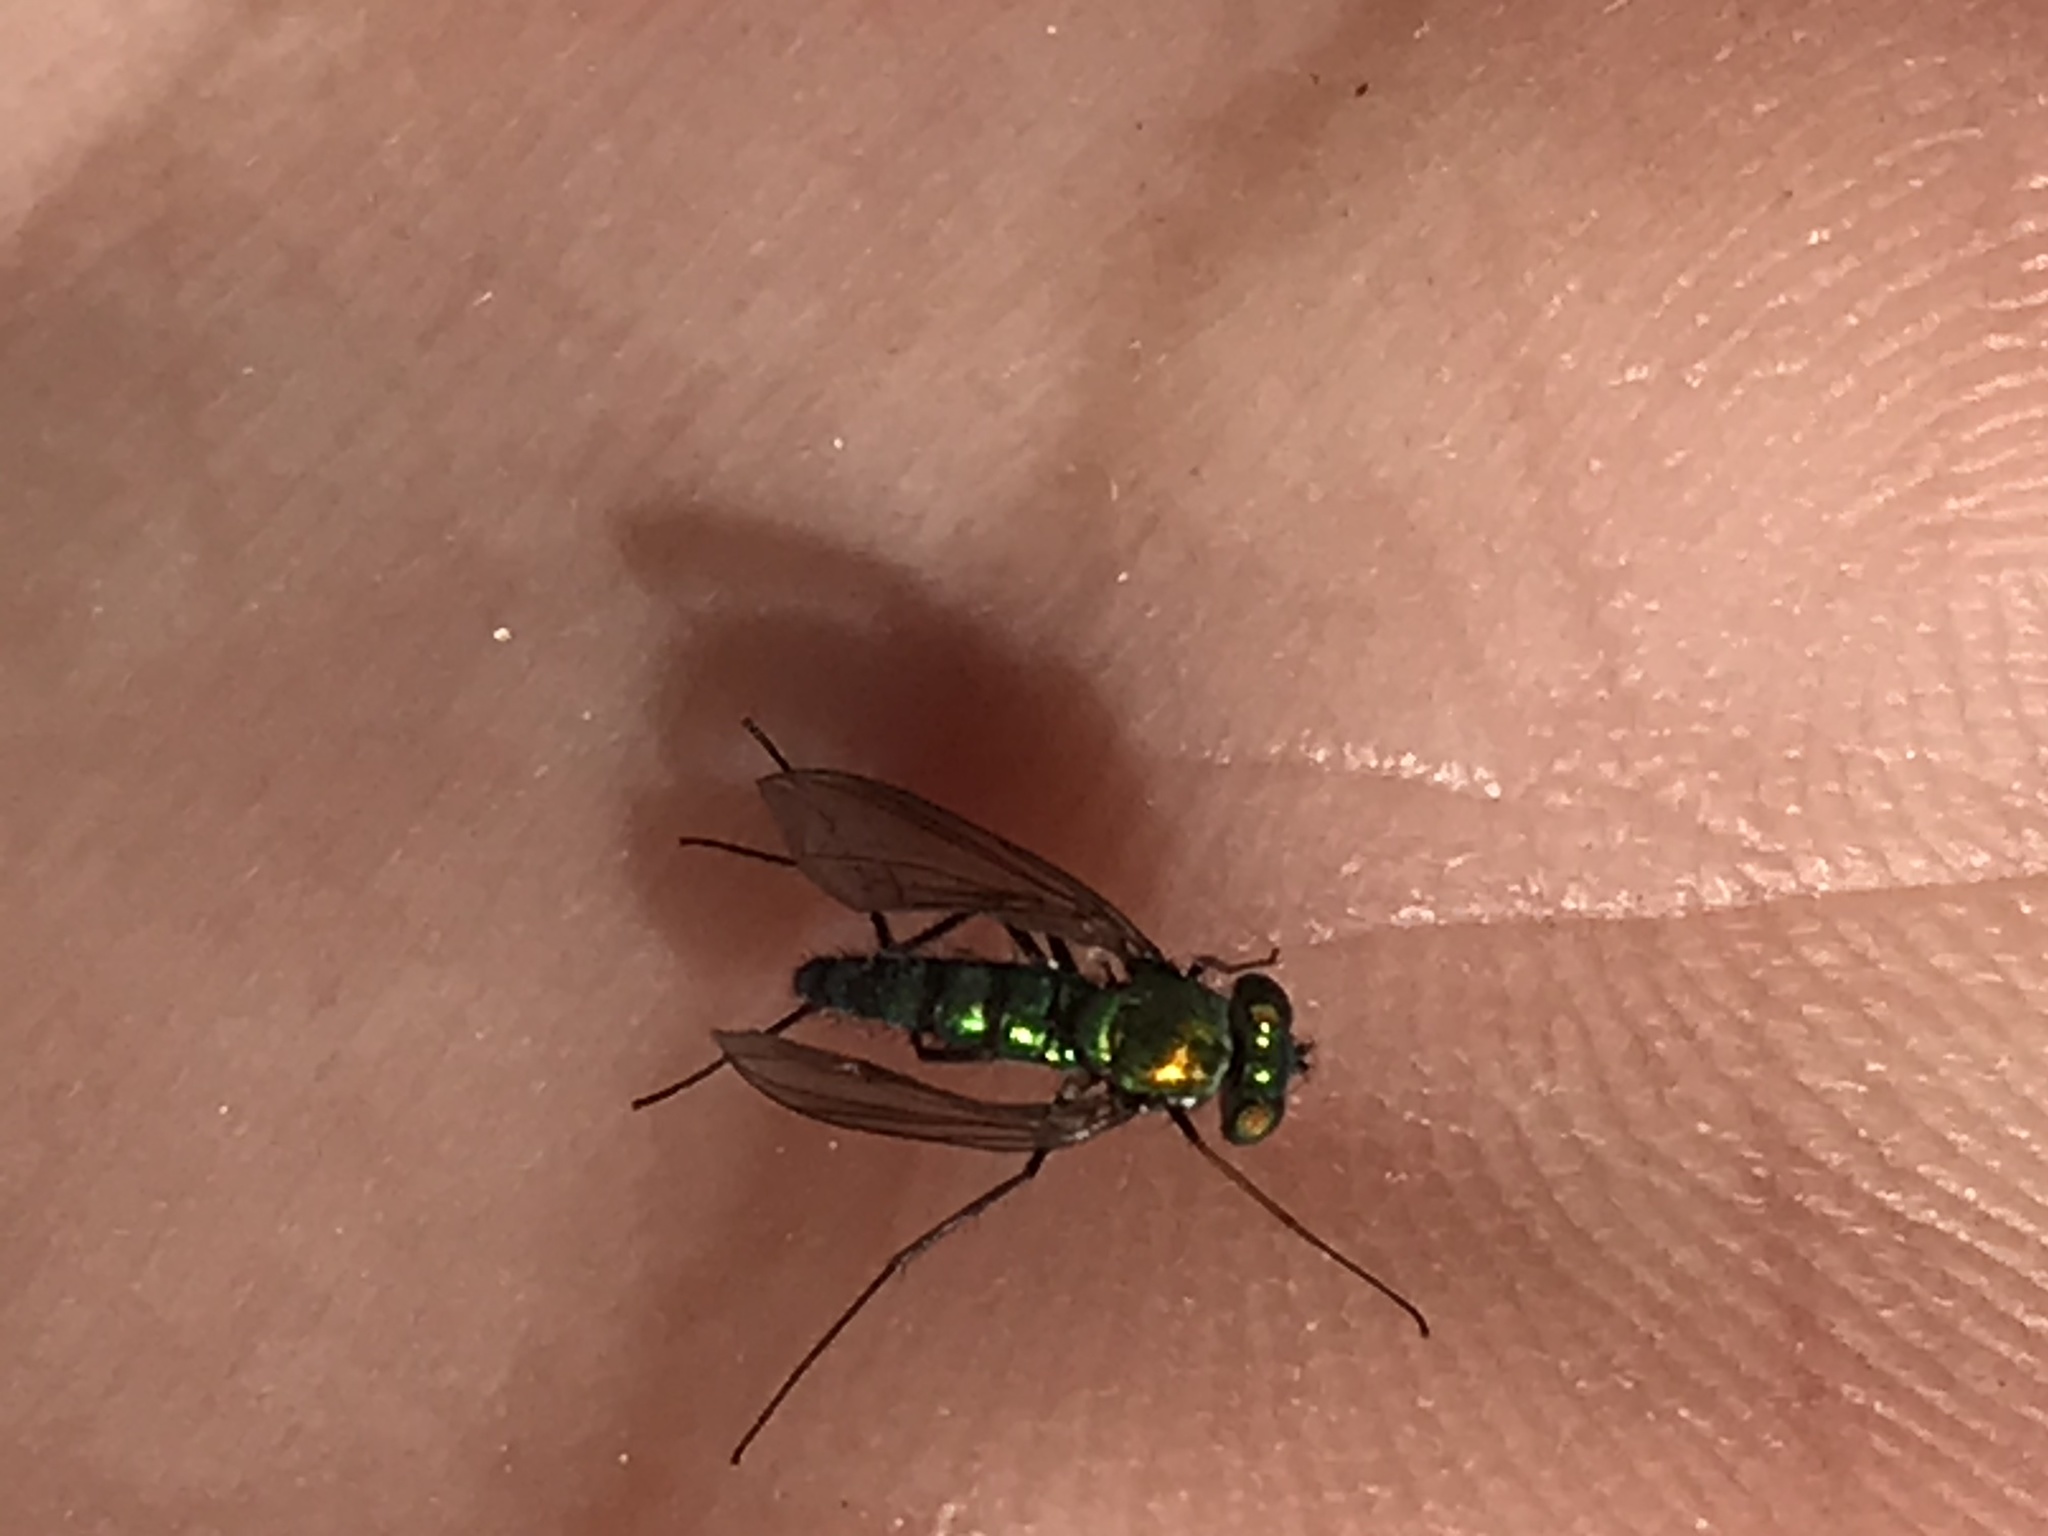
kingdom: Animalia
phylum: Arthropoda
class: Insecta
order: Diptera
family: Dolichopodidae
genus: Condylostylus
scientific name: Condylostylus longicornis
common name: Long-legged fly
